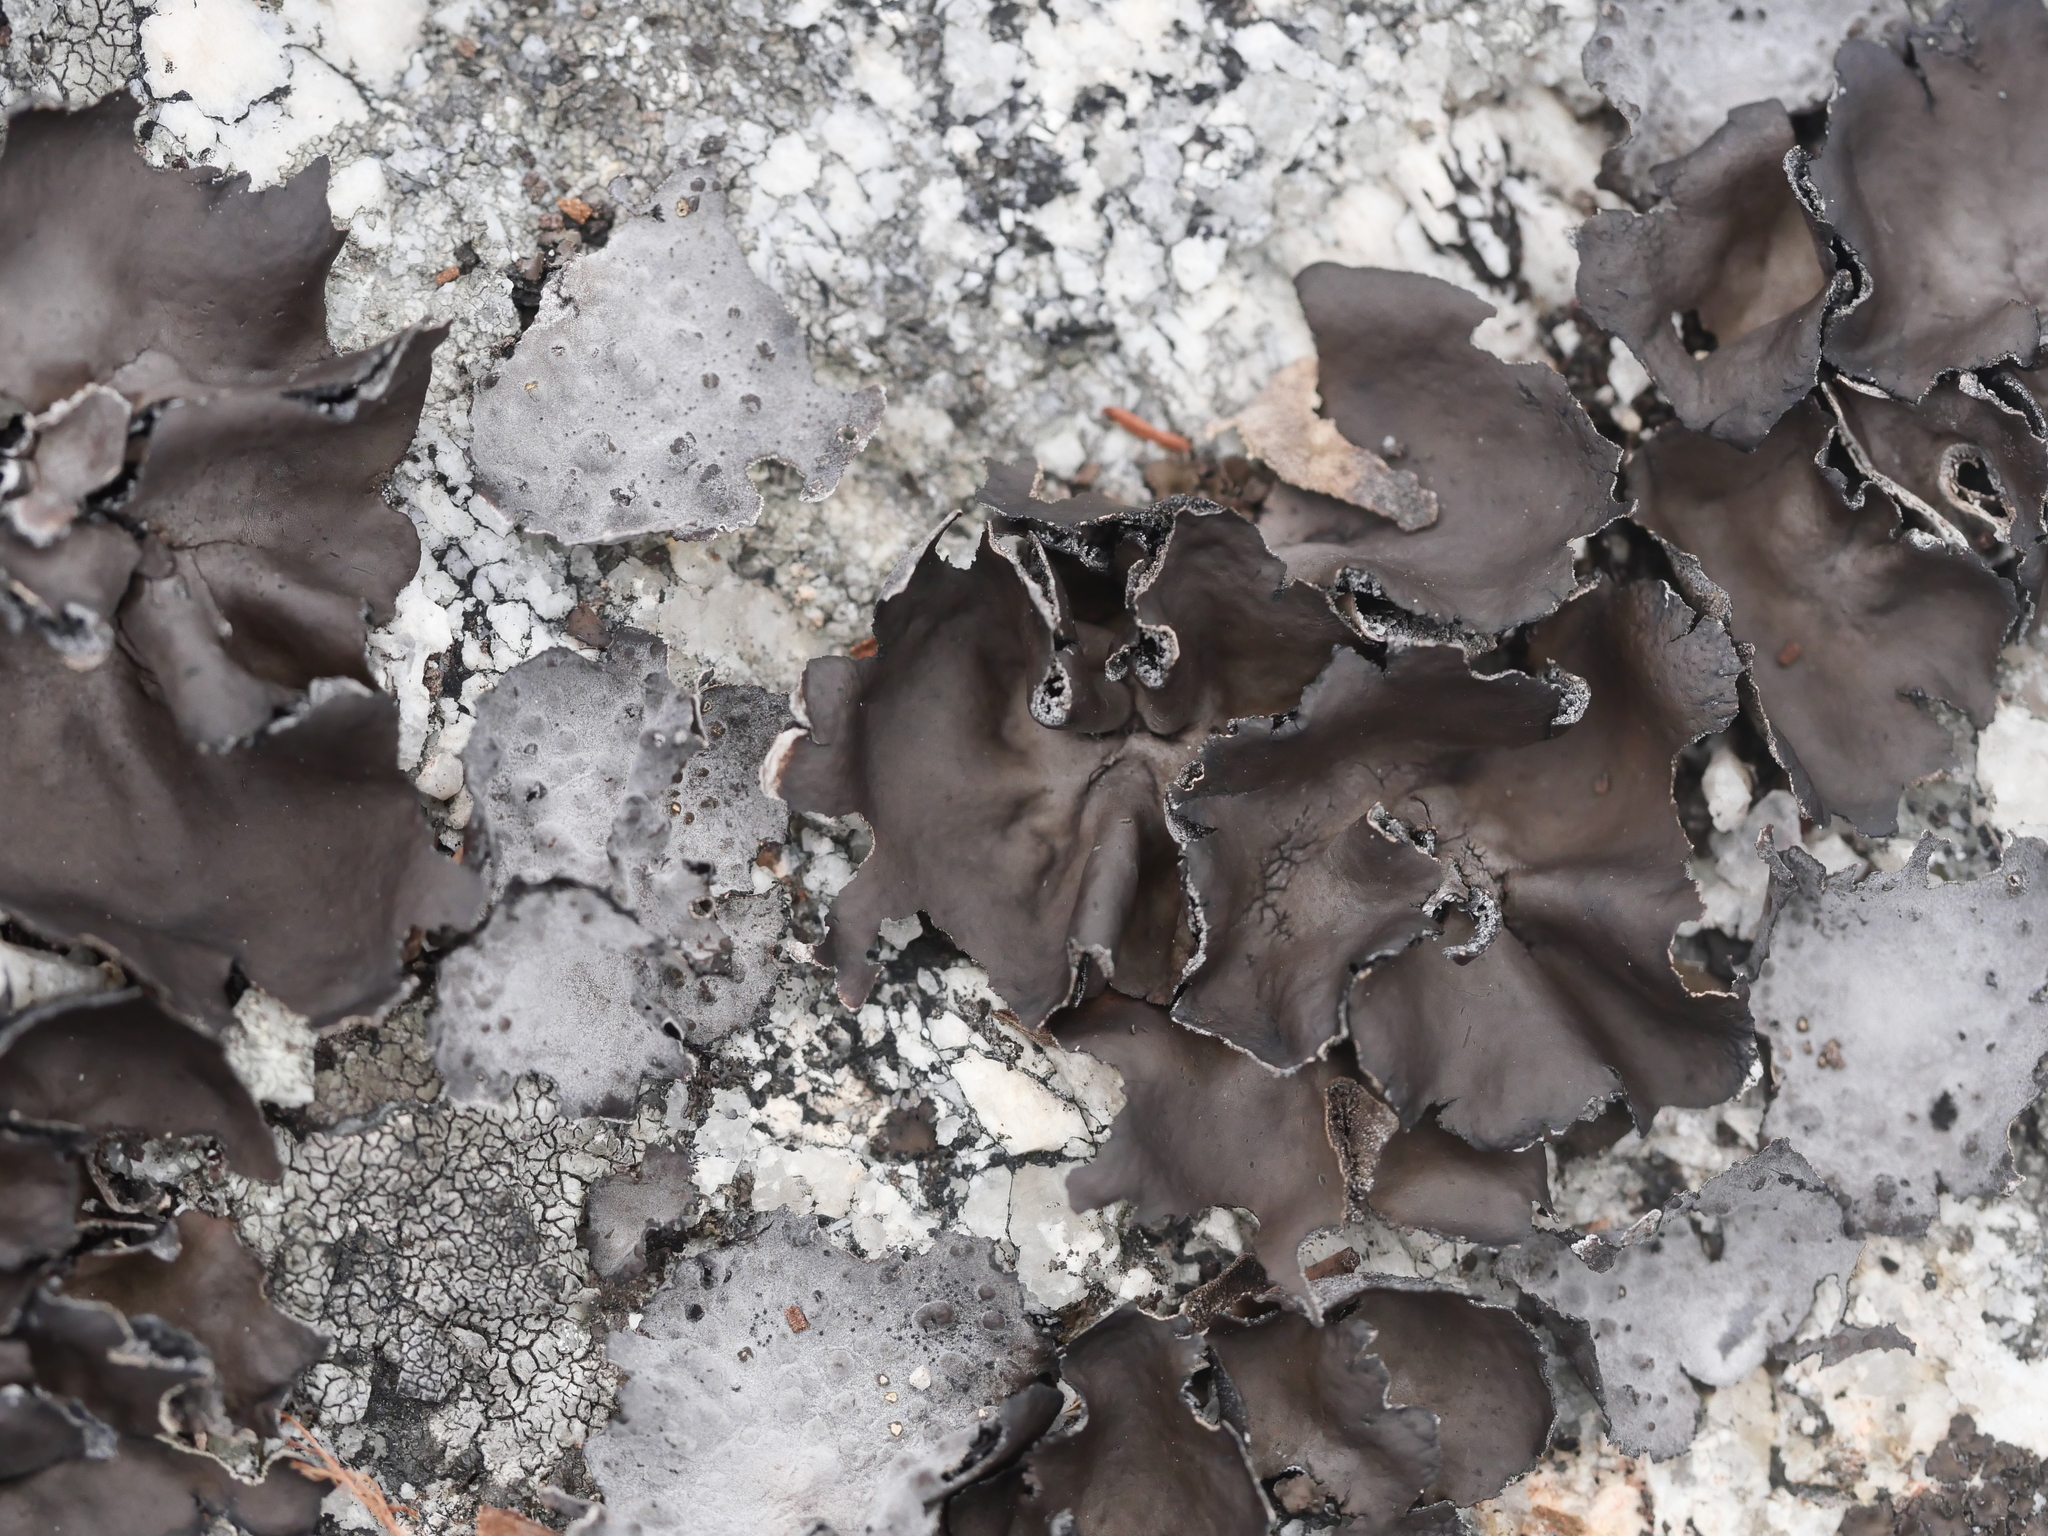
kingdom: Fungi
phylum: Ascomycota
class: Lecanoromycetes
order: Umbilicariales
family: Umbilicariaceae
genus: Umbilicaria
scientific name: Umbilicaria muhlenbergii
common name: Lesser rocktripe
